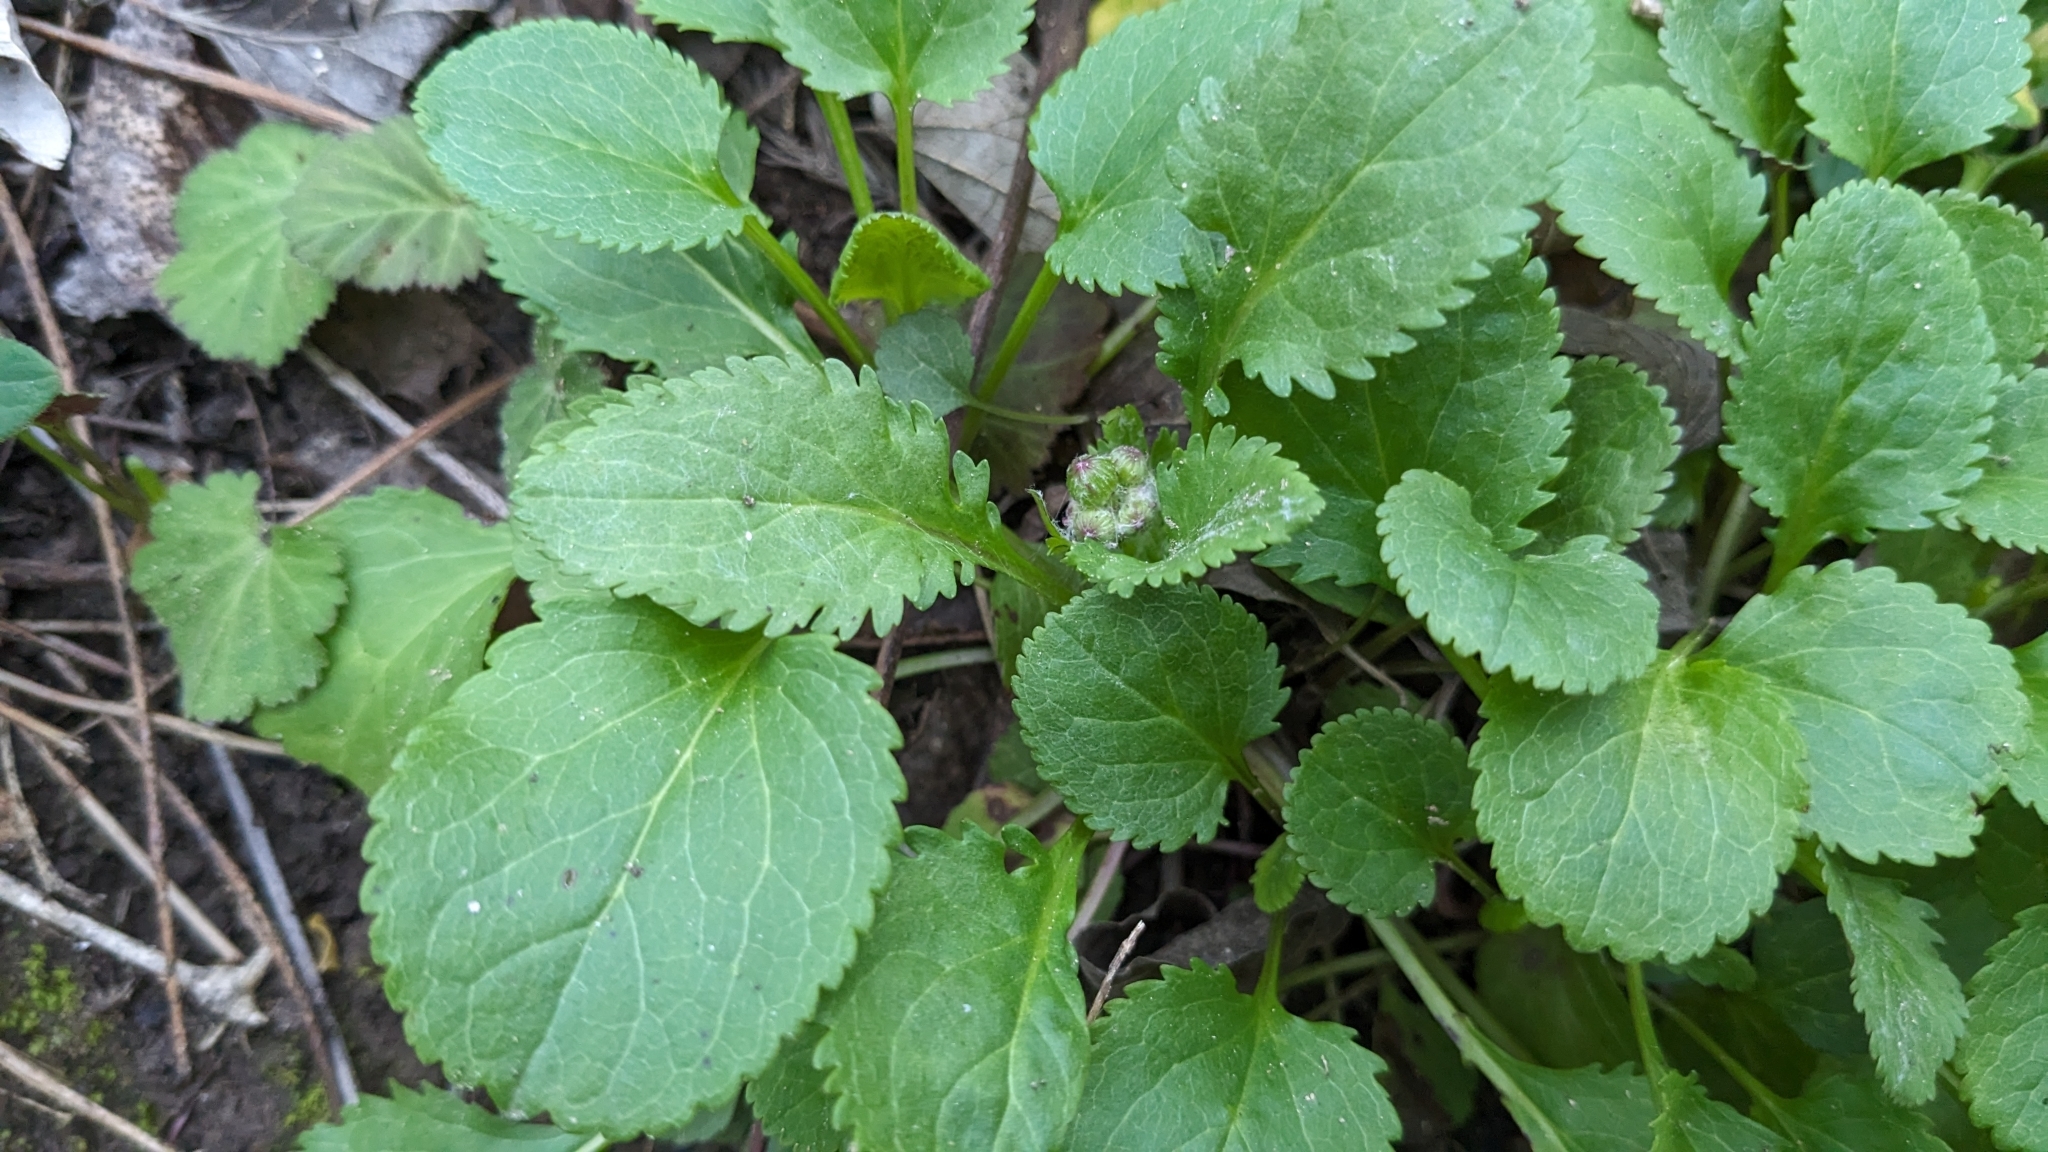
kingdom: Plantae
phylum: Tracheophyta
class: Magnoliopsida
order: Asterales
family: Asteraceae
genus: Packera
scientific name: Packera obovata
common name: Round-leaf ragwort
